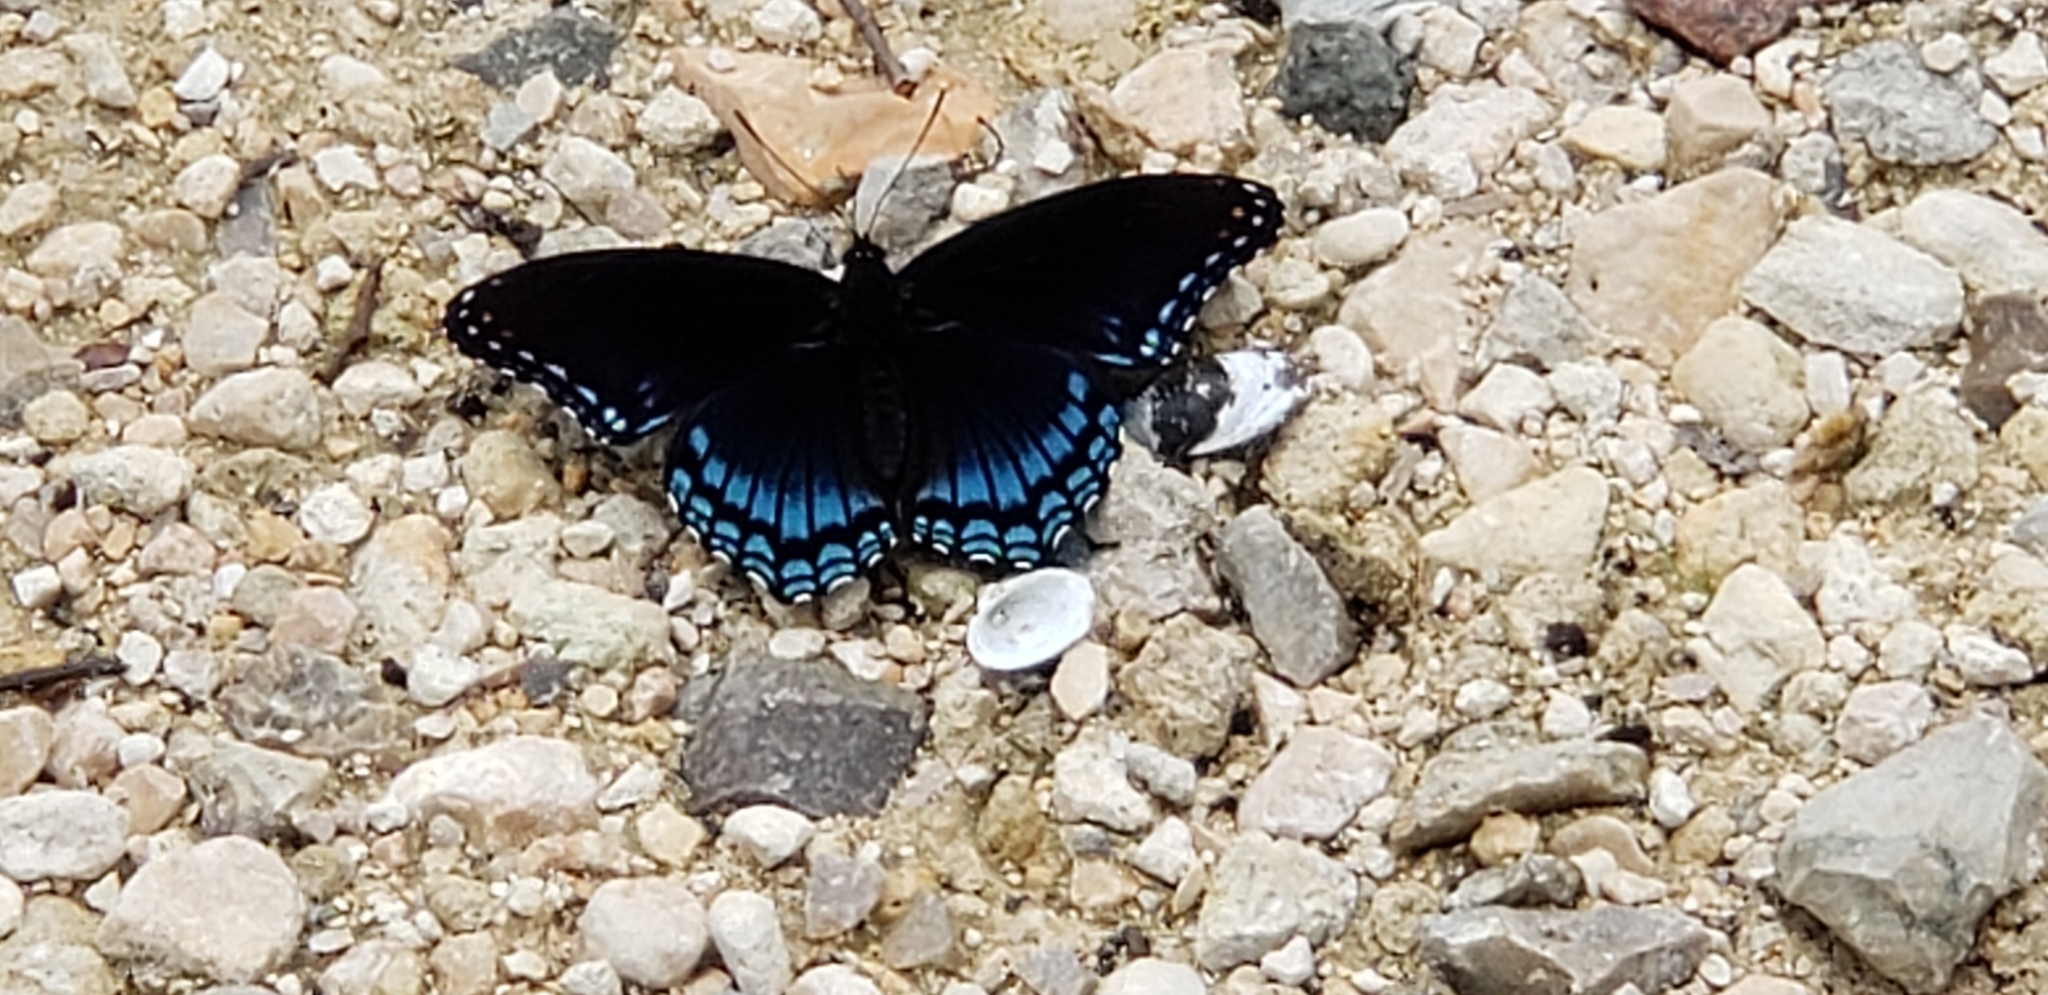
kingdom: Animalia
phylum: Arthropoda
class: Insecta
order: Lepidoptera
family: Nymphalidae
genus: Limenitis
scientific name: Limenitis arthemis
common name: Red-spotted admiral
